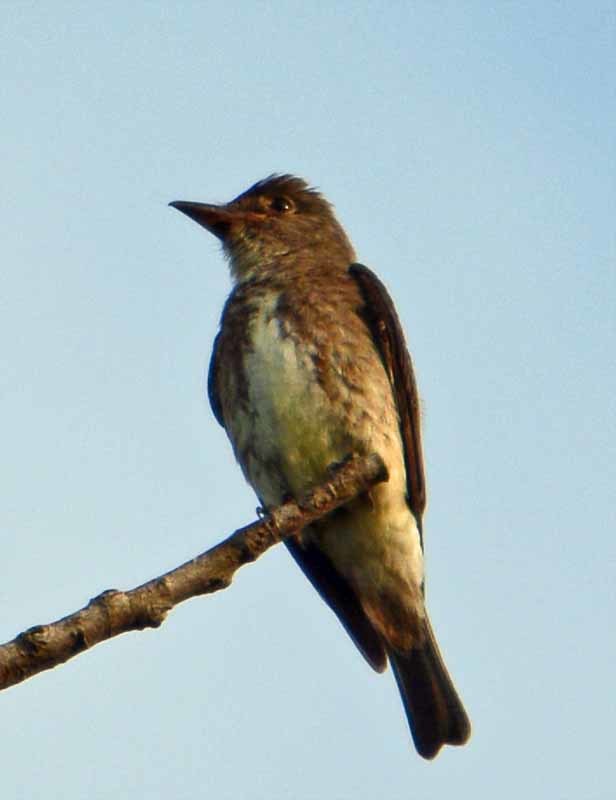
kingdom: Animalia
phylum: Chordata
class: Aves
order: Passeriformes
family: Tyrannidae
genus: Contopus
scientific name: Contopus cooperi
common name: Olive-sided flycatcher
